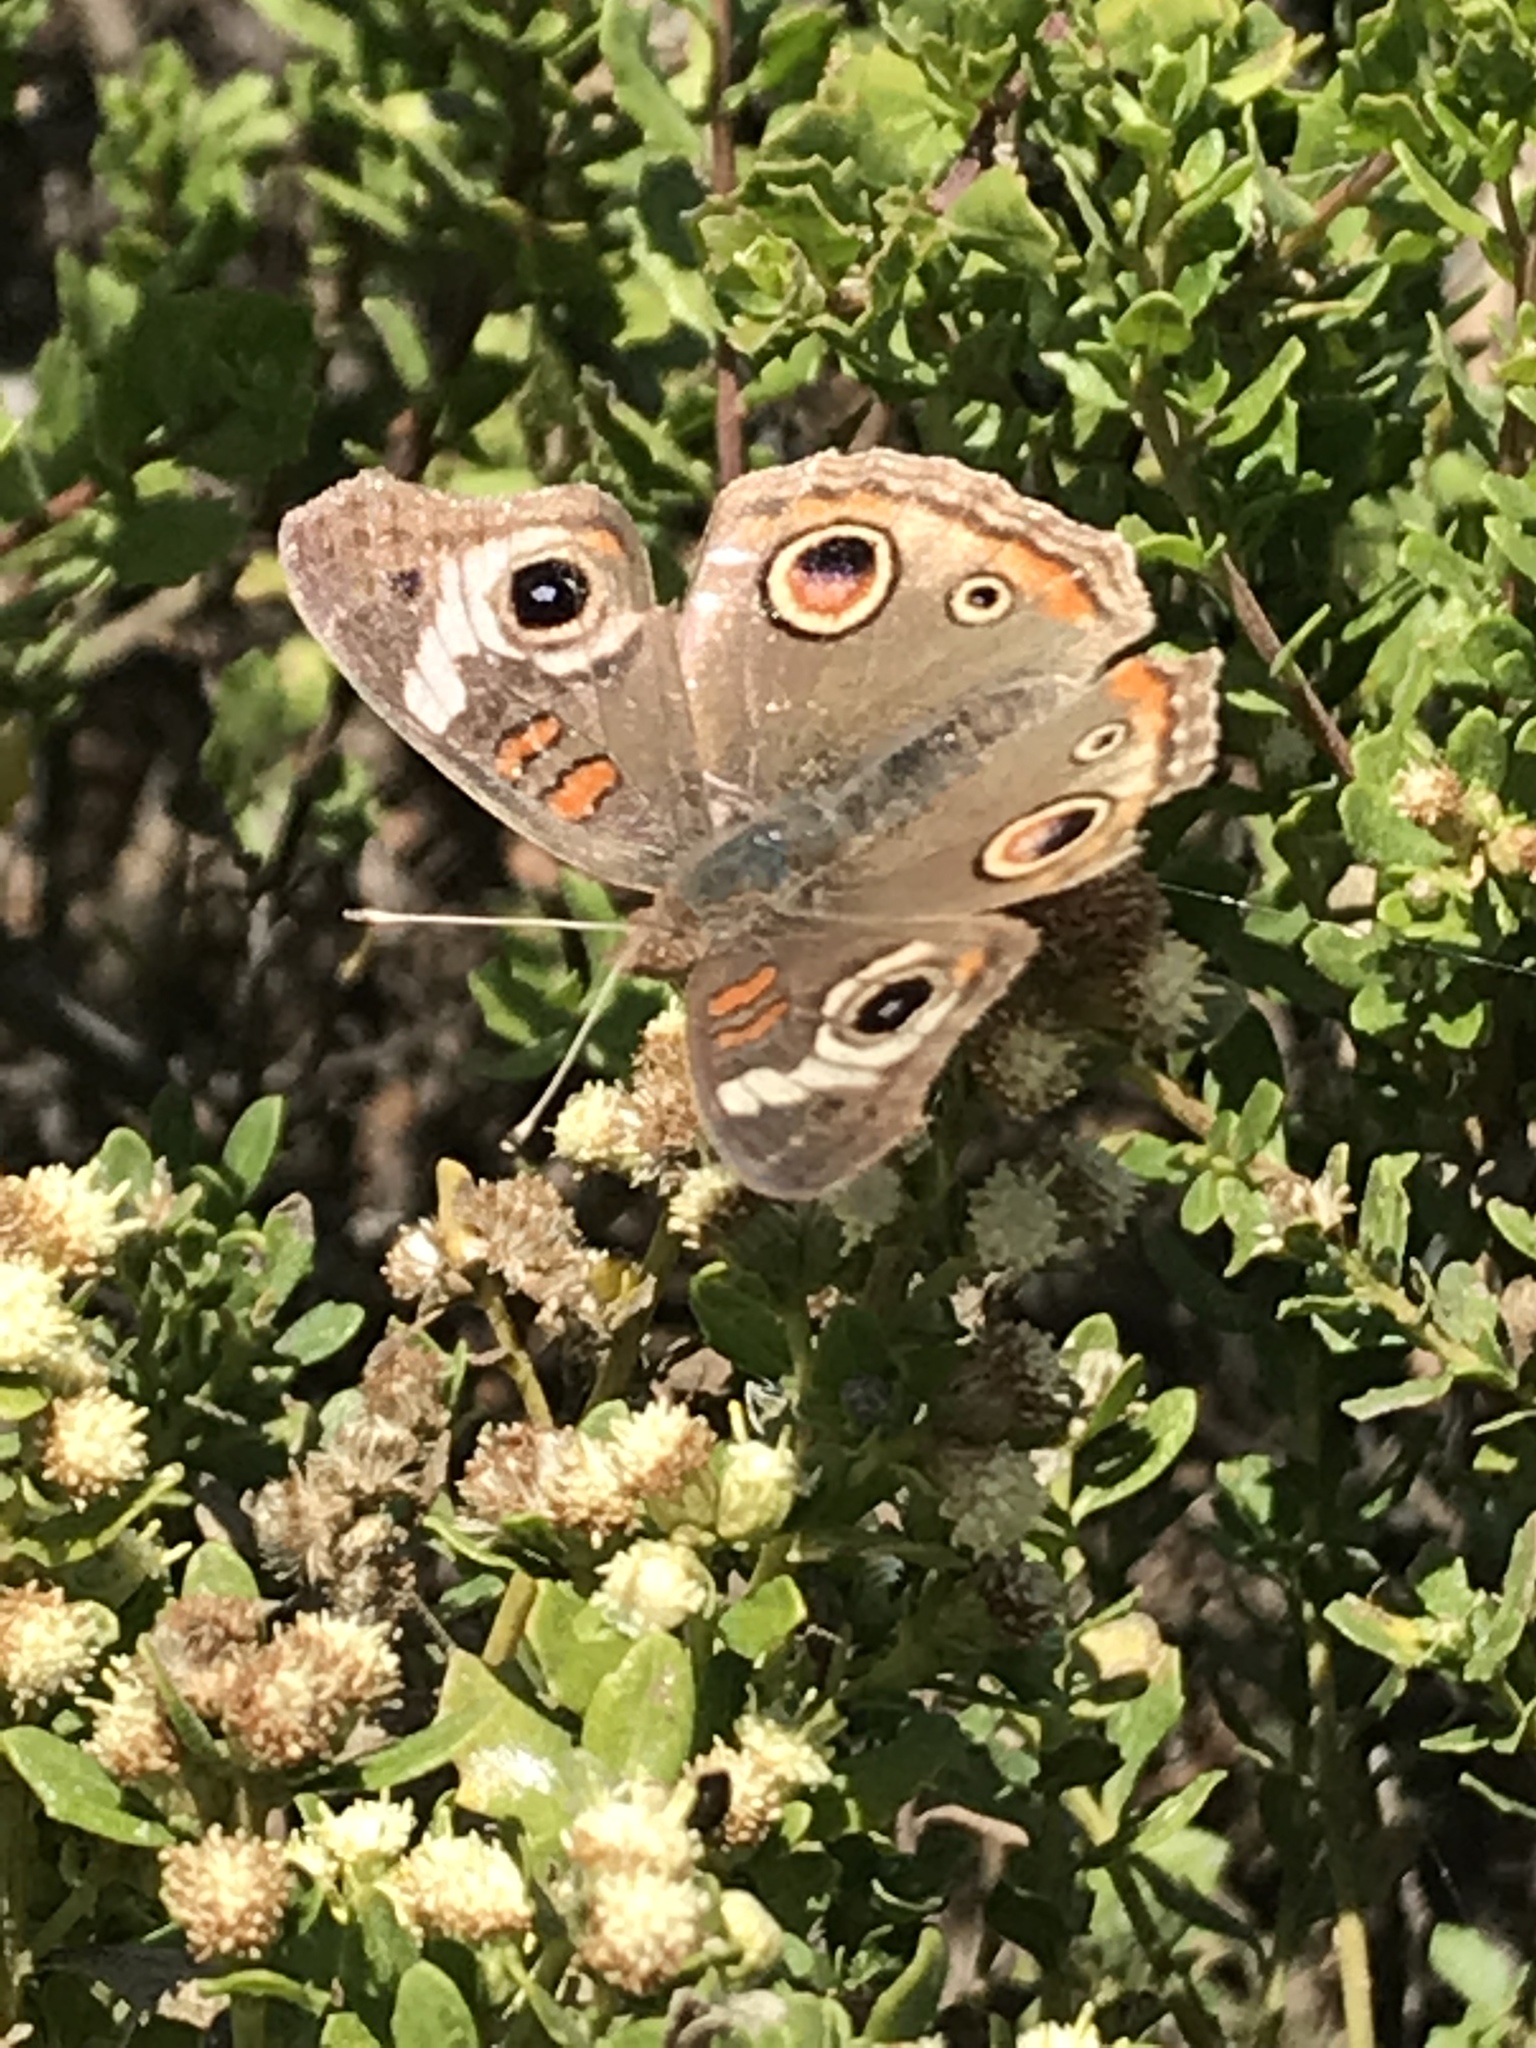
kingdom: Animalia
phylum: Arthropoda
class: Insecta
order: Lepidoptera
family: Nymphalidae
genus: Junonia
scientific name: Junonia grisea
